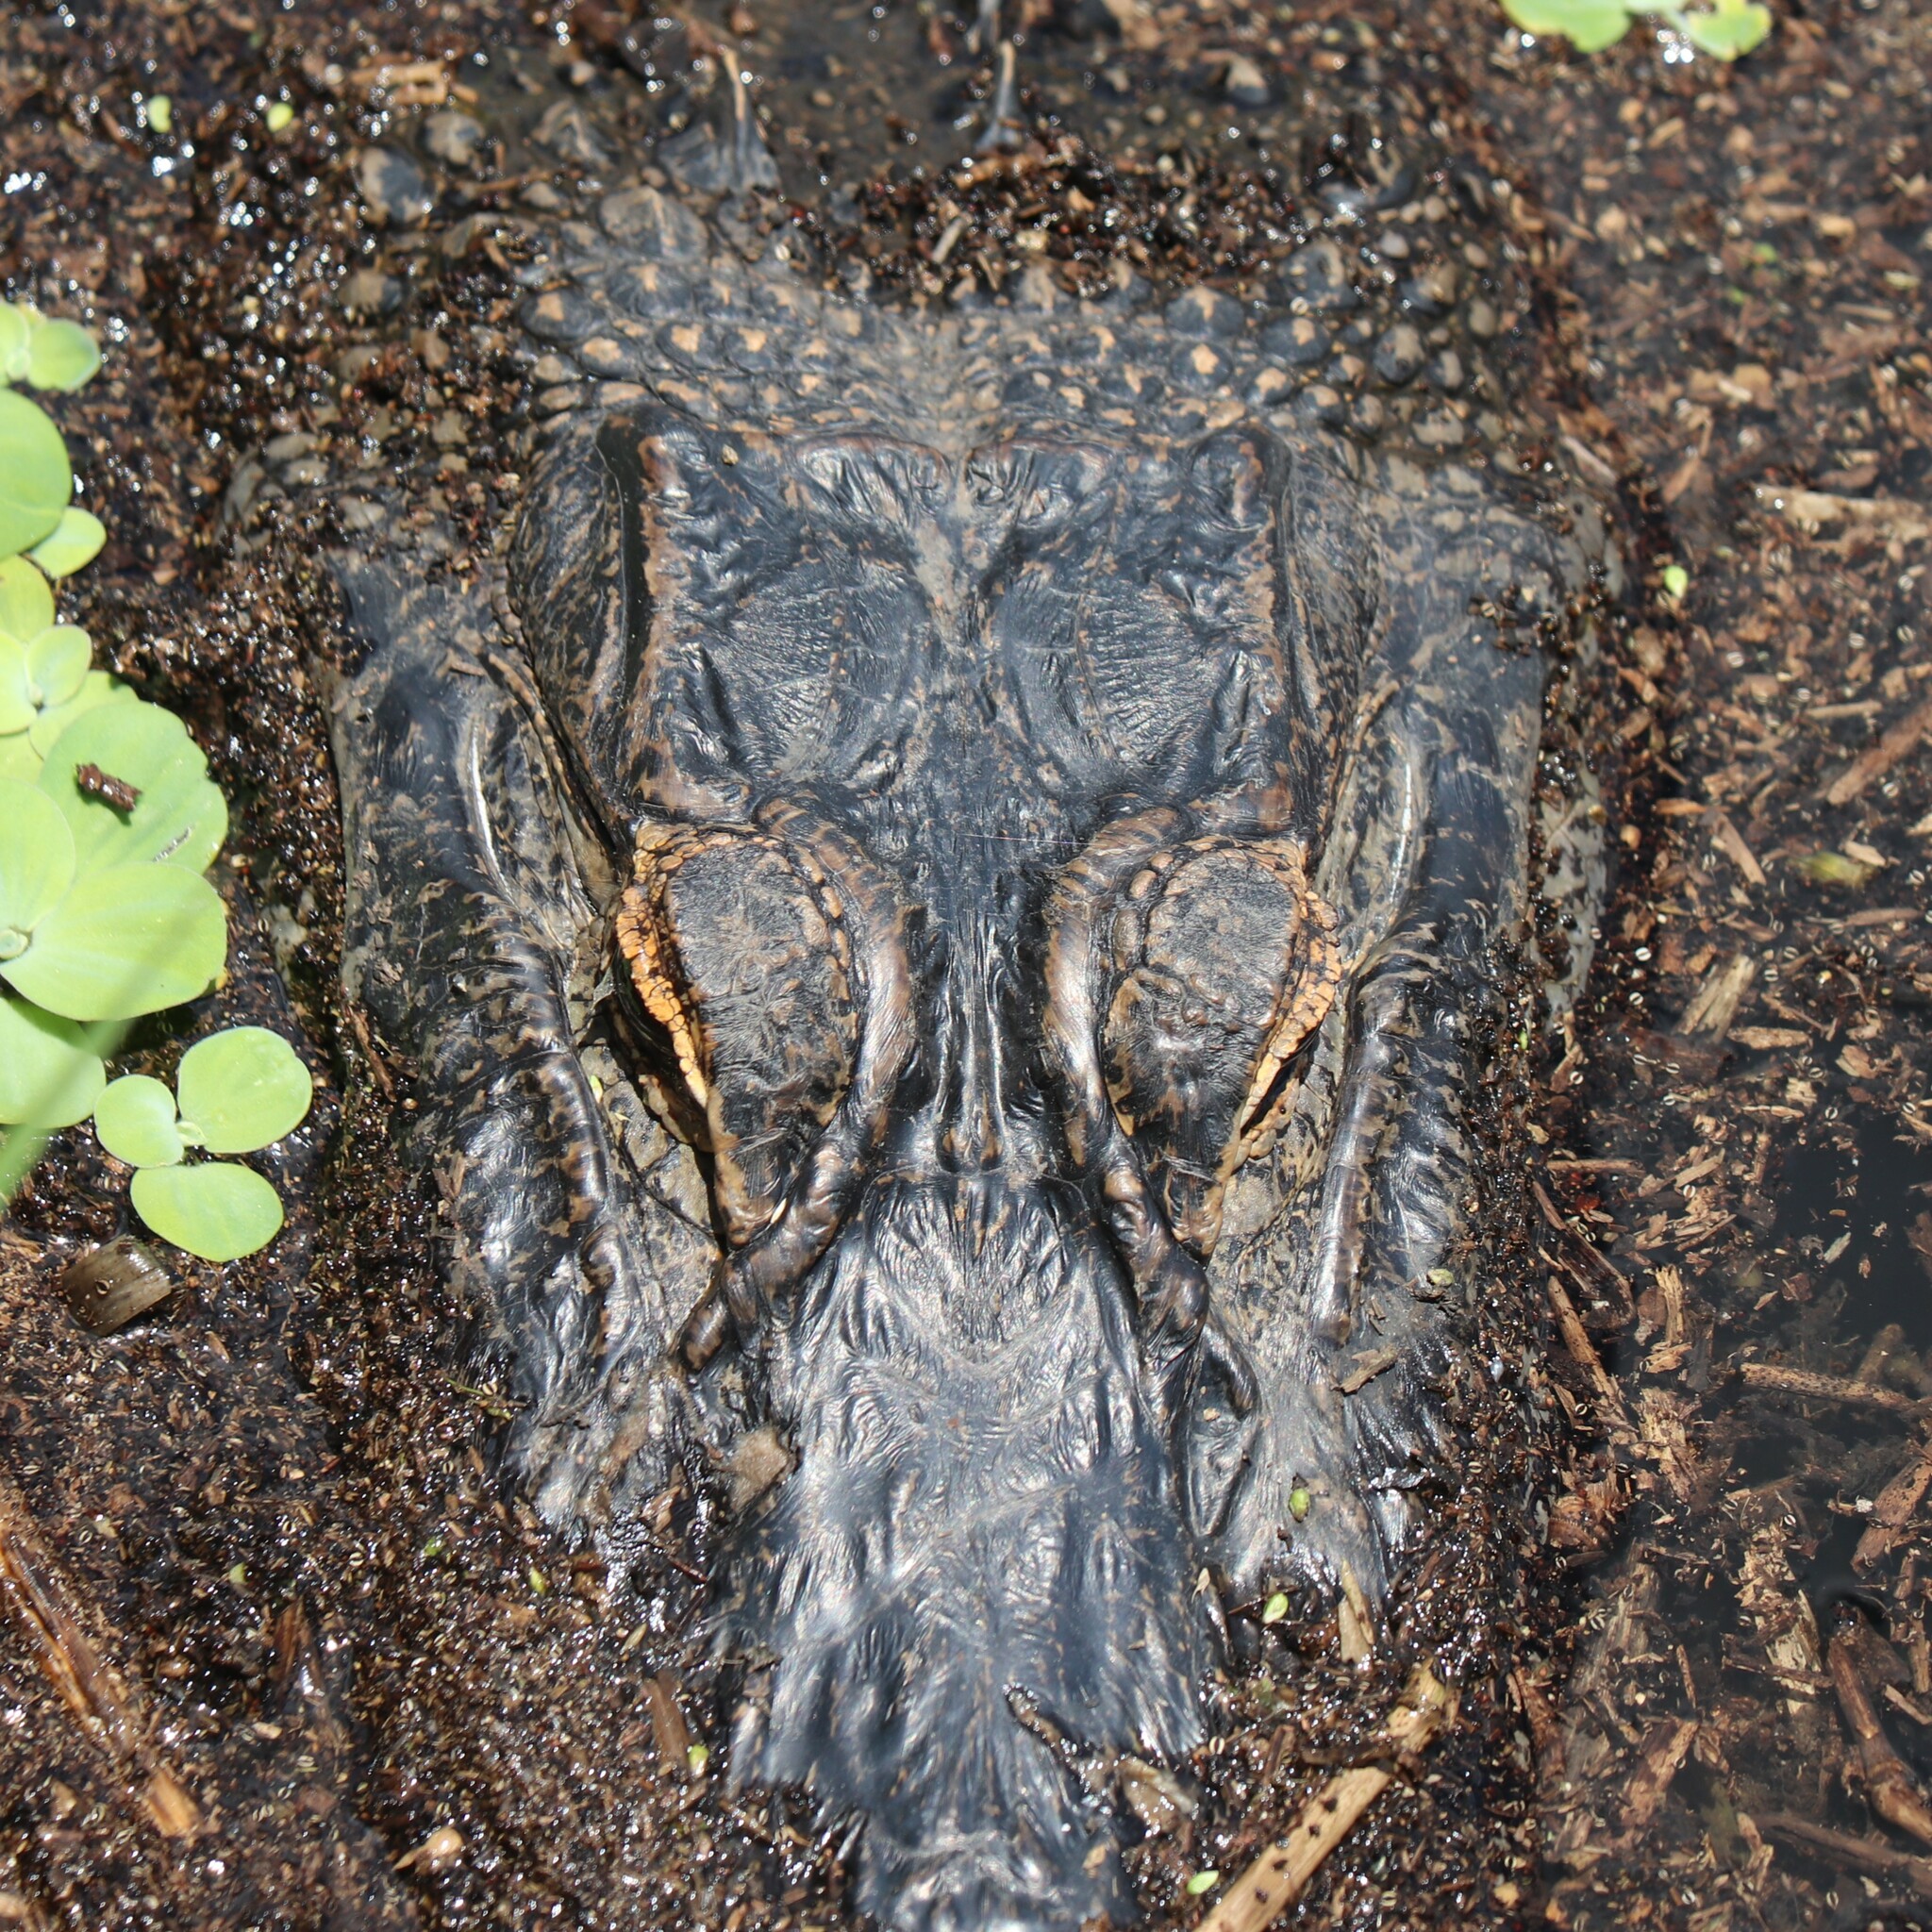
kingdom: Animalia
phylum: Chordata
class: Crocodylia
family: Alligatoridae
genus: Alligator
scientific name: Alligator mississippiensis
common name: American alligator
